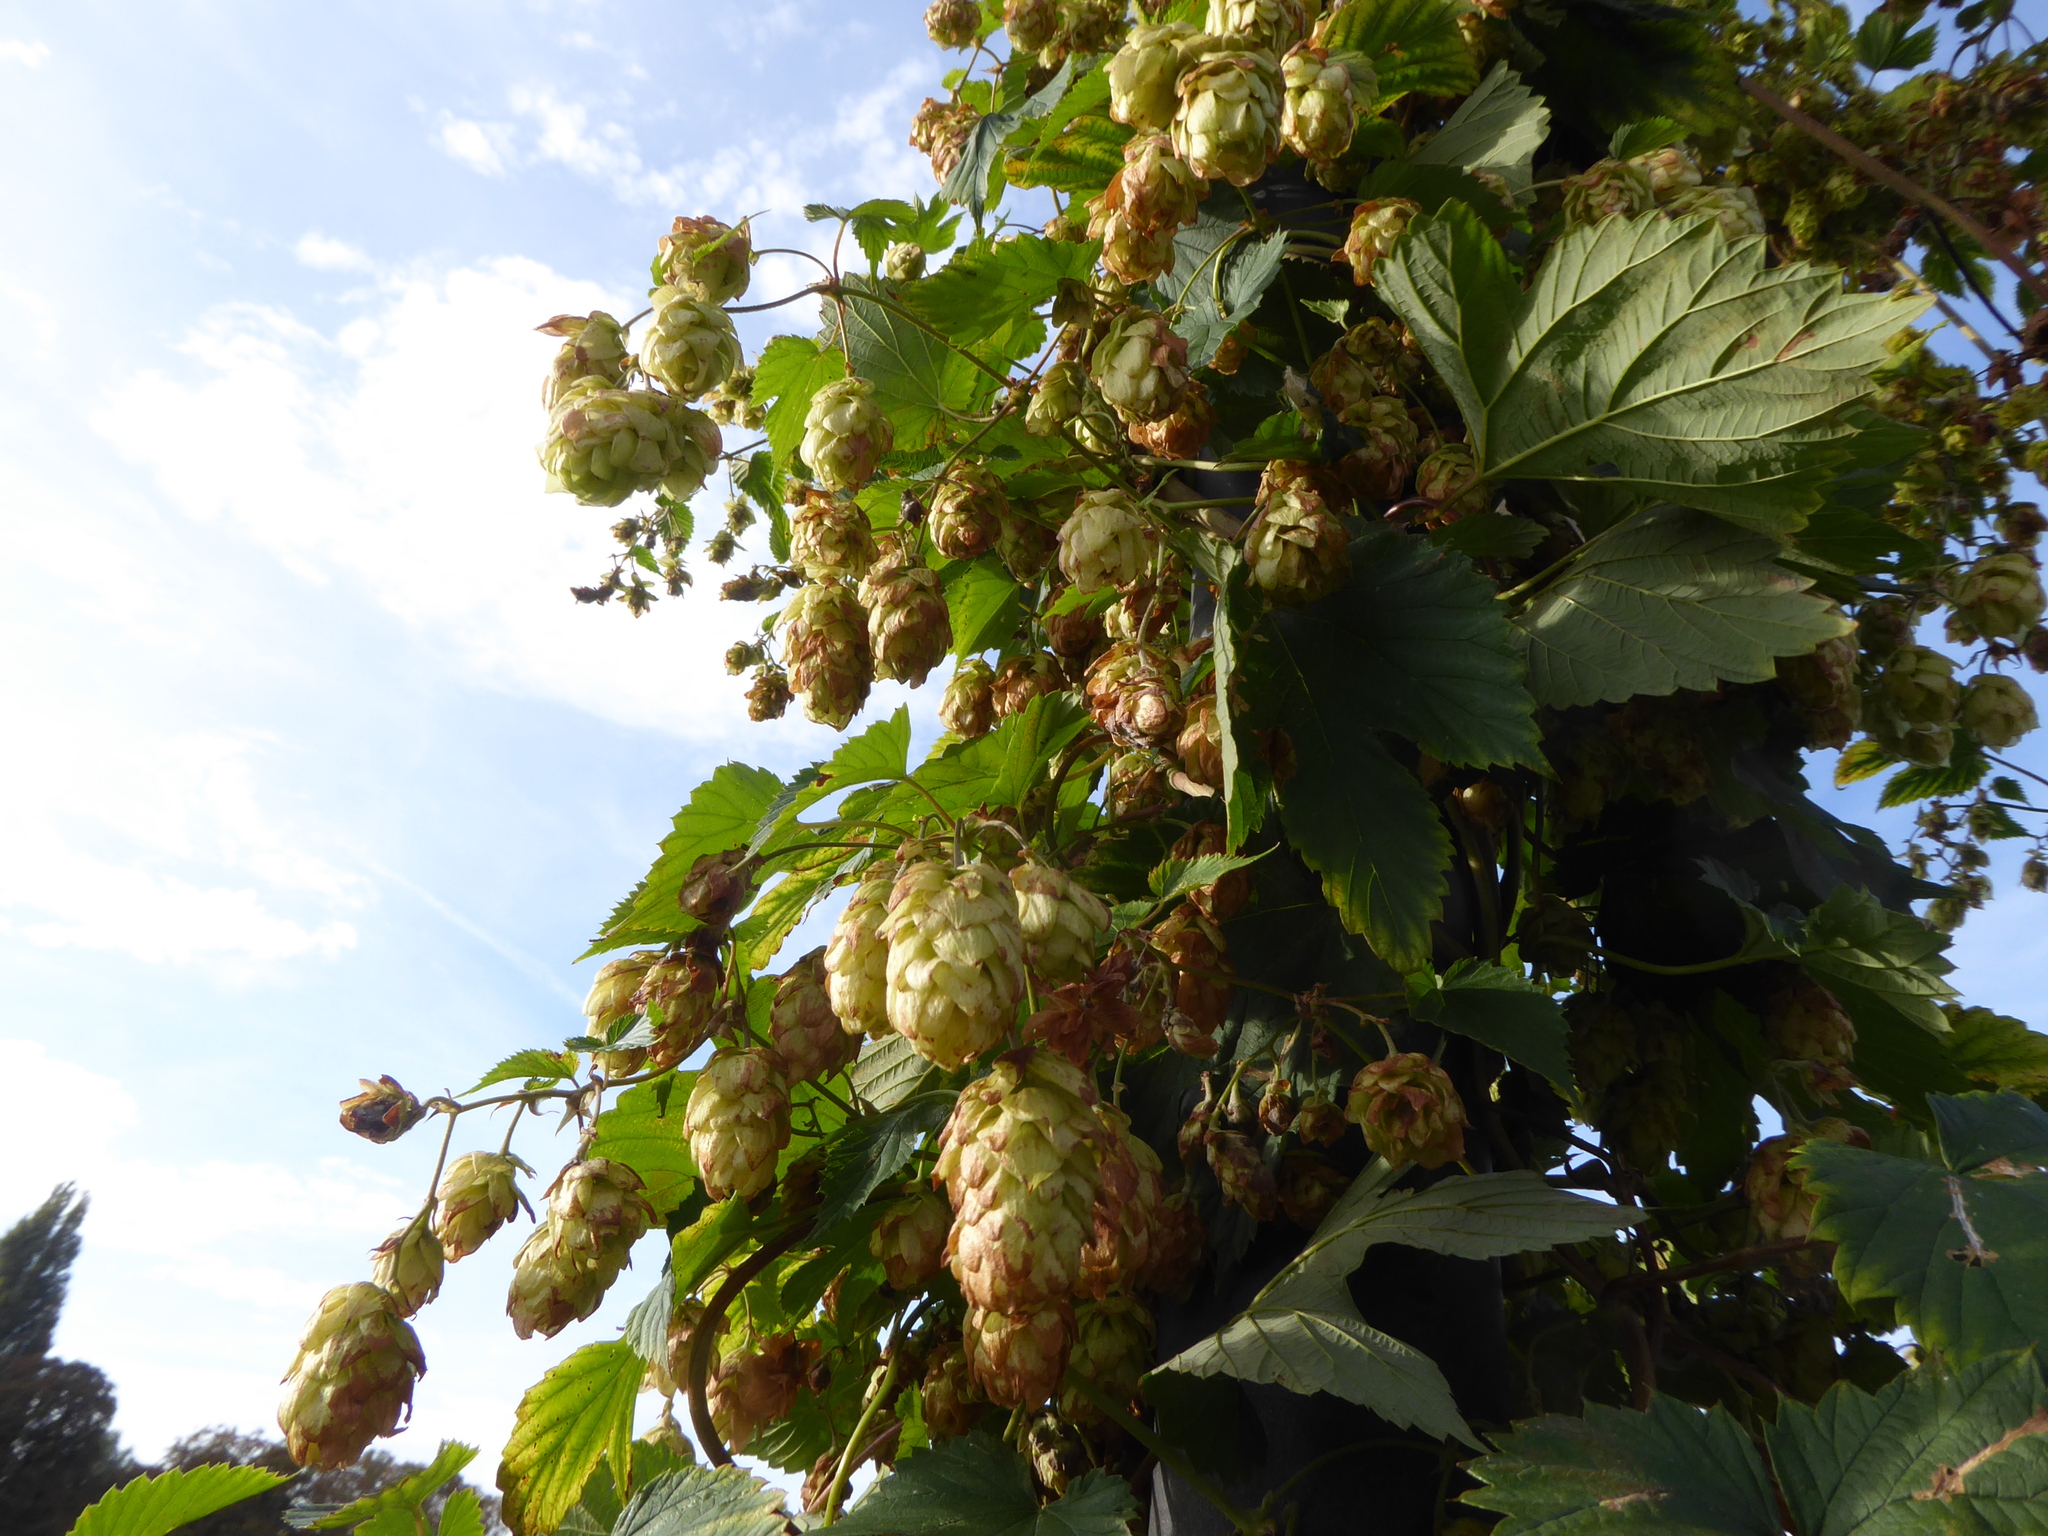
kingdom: Plantae
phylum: Tracheophyta
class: Magnoliopsida
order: Rosales
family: Cannabaceae
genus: Humulus
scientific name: Humulus lupulus
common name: Hop
